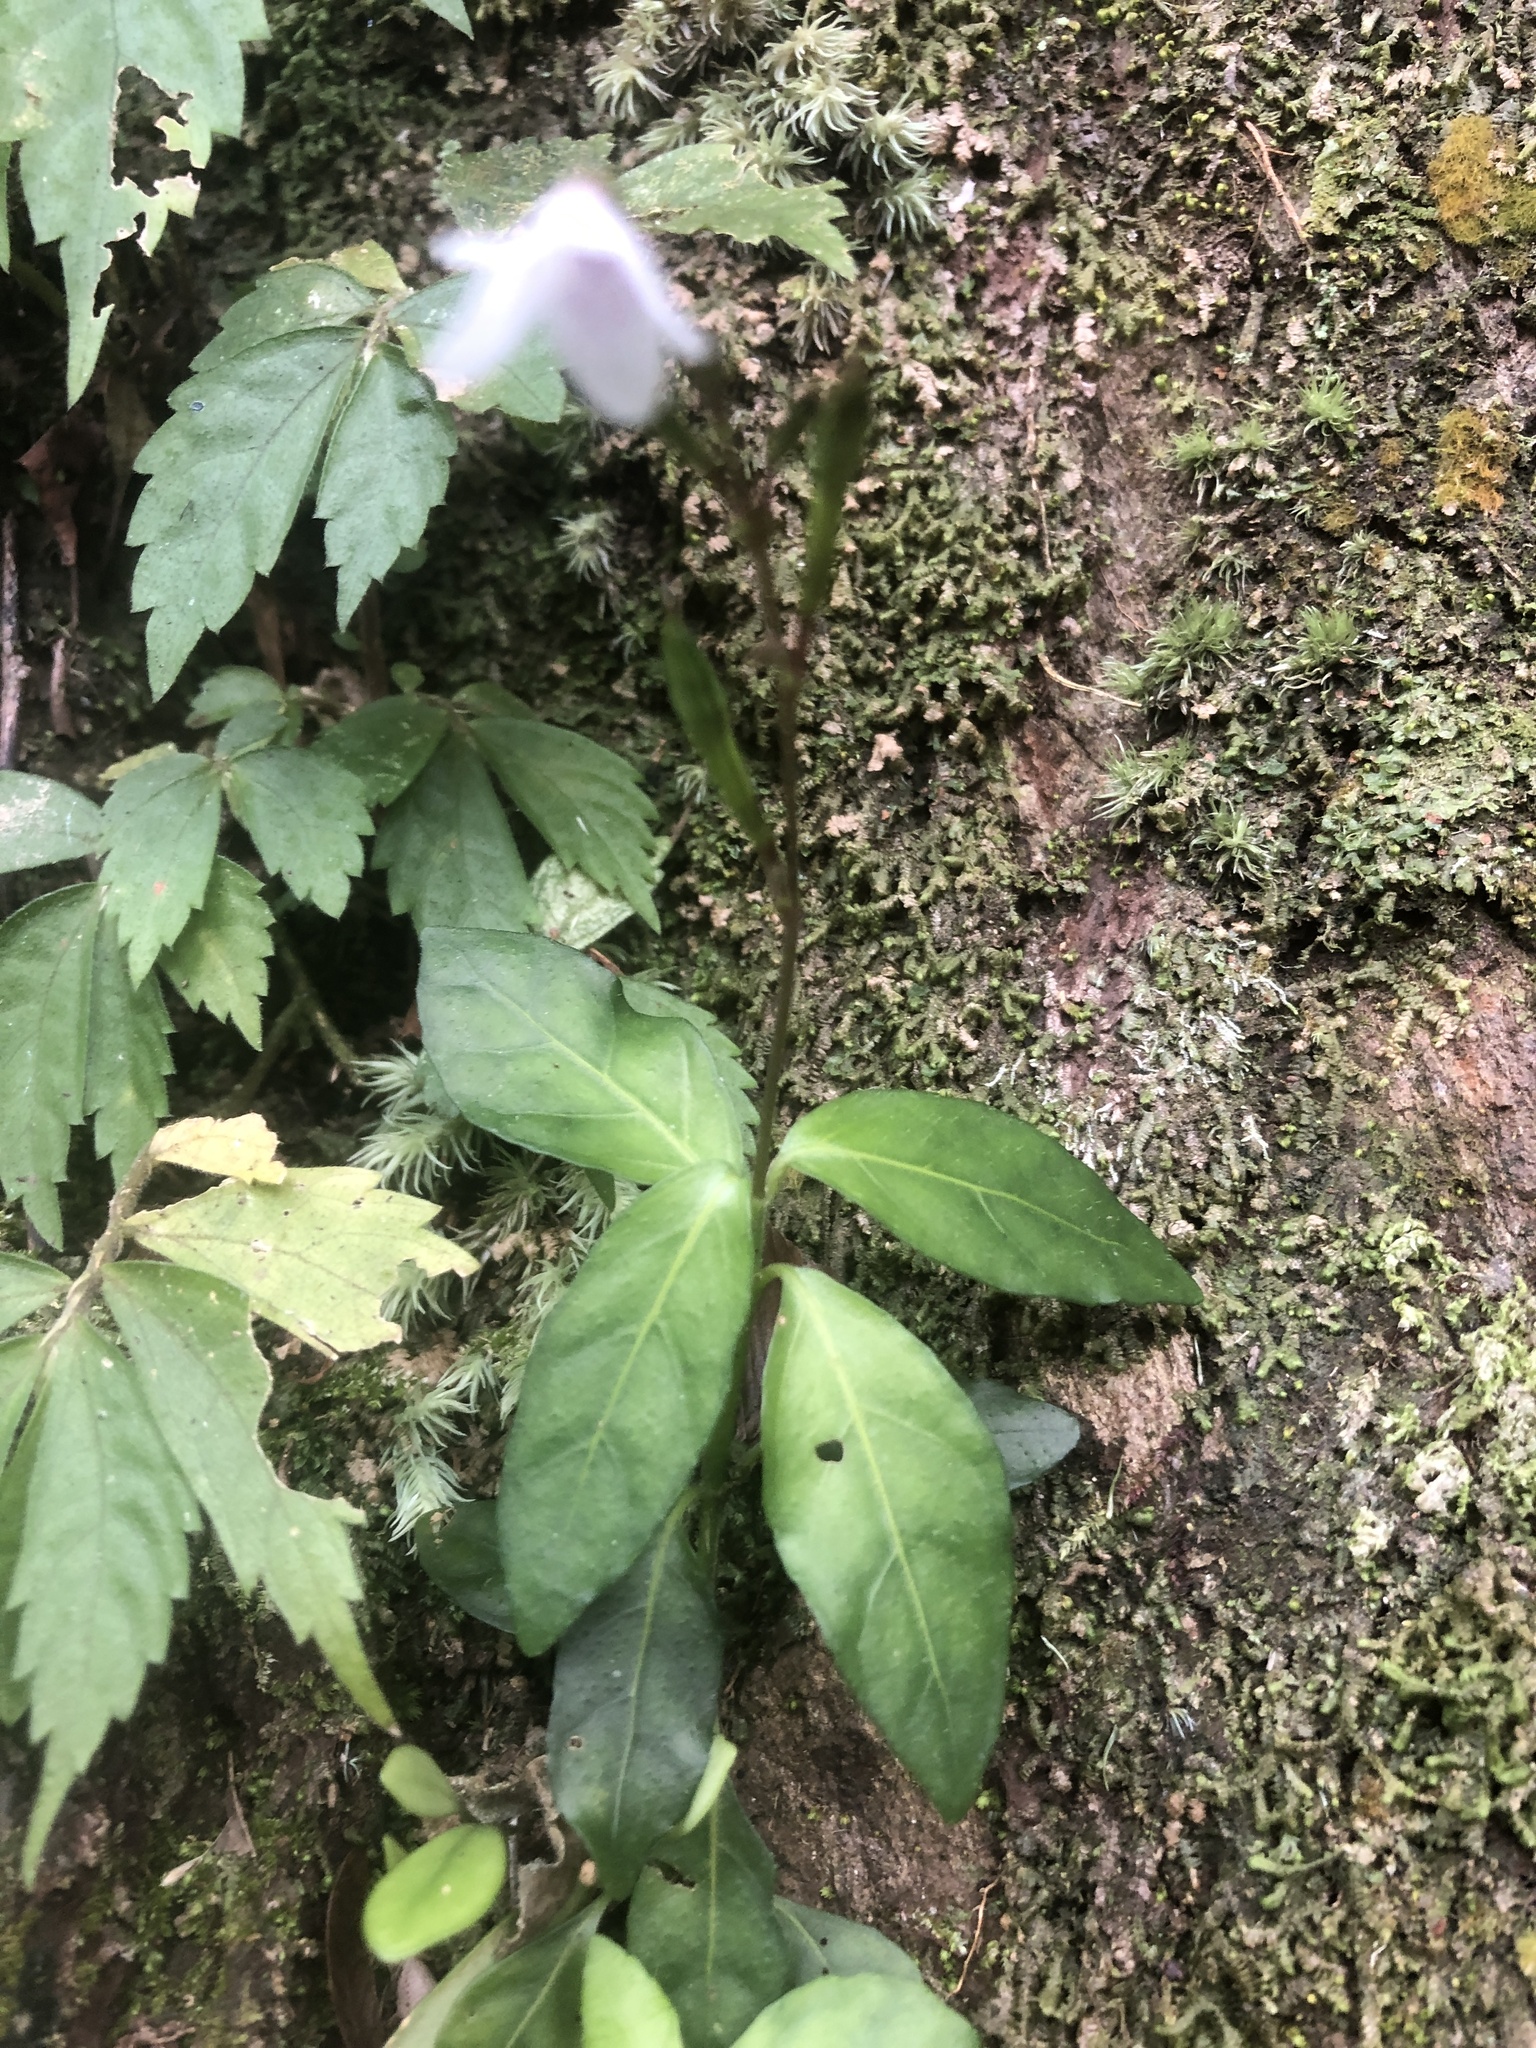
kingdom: Plantae
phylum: Tracheophyta
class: Magnoliopsida
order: Lamiales
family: Acanthaceae
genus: Codonacanthus
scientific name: Codonacanthus pauciflorus
